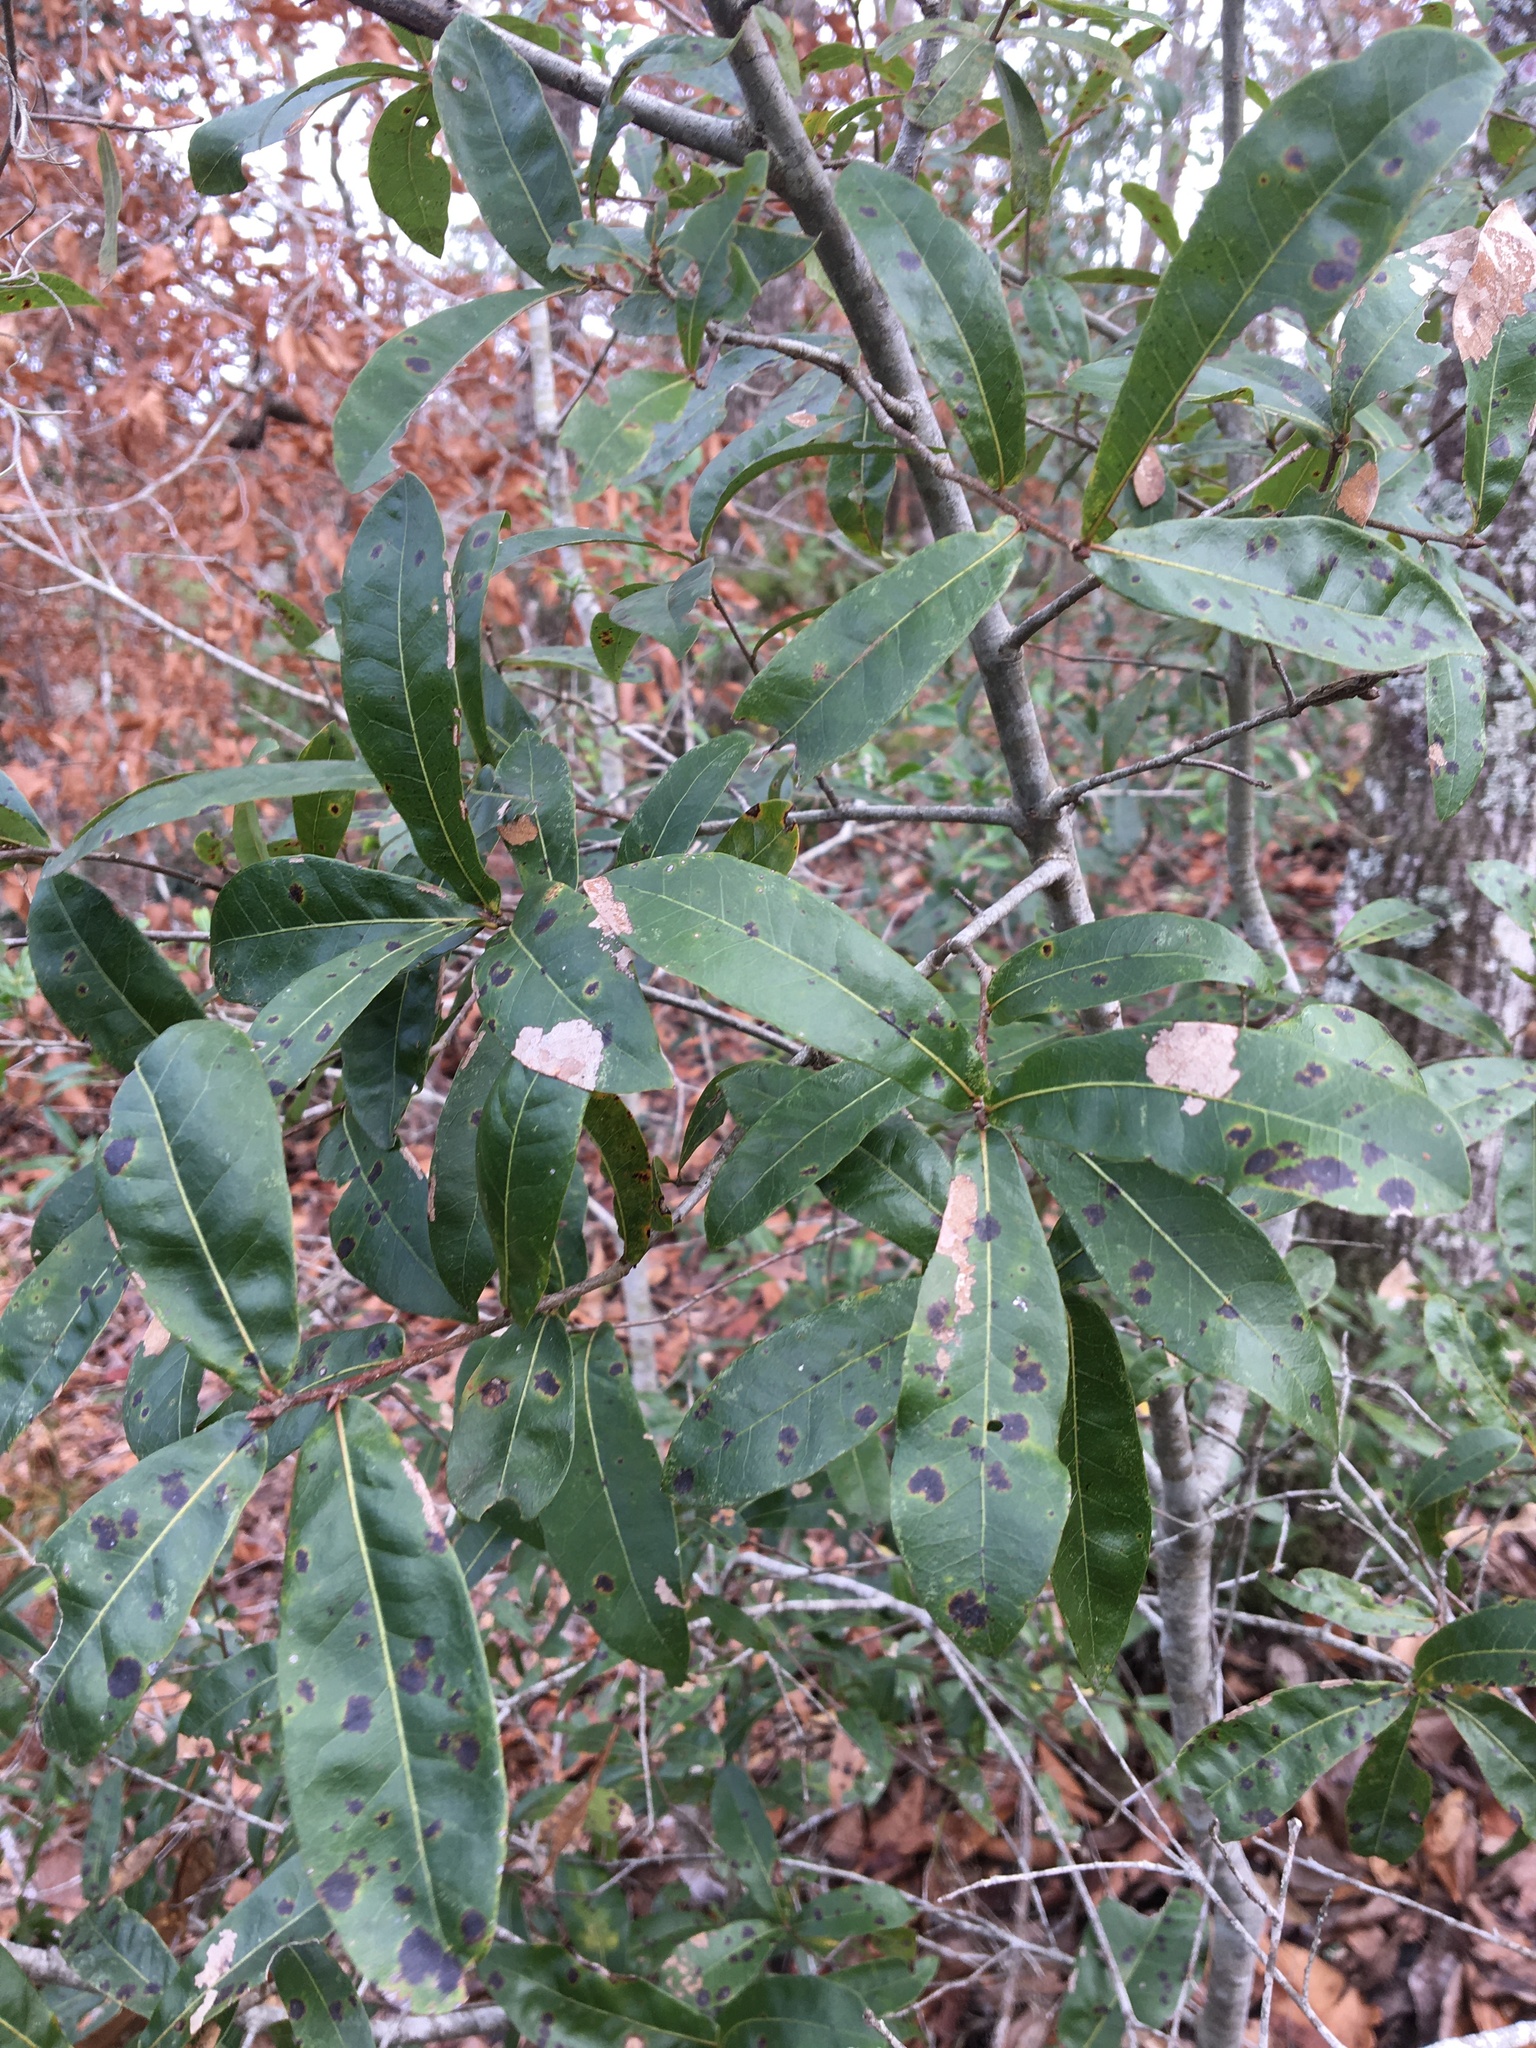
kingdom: Plantae
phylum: Tracheophyta
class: Magnoliopsida
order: Fagales
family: Fagaceae
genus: Quercus
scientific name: Quercus hemisphaerica
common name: Darlington oak
